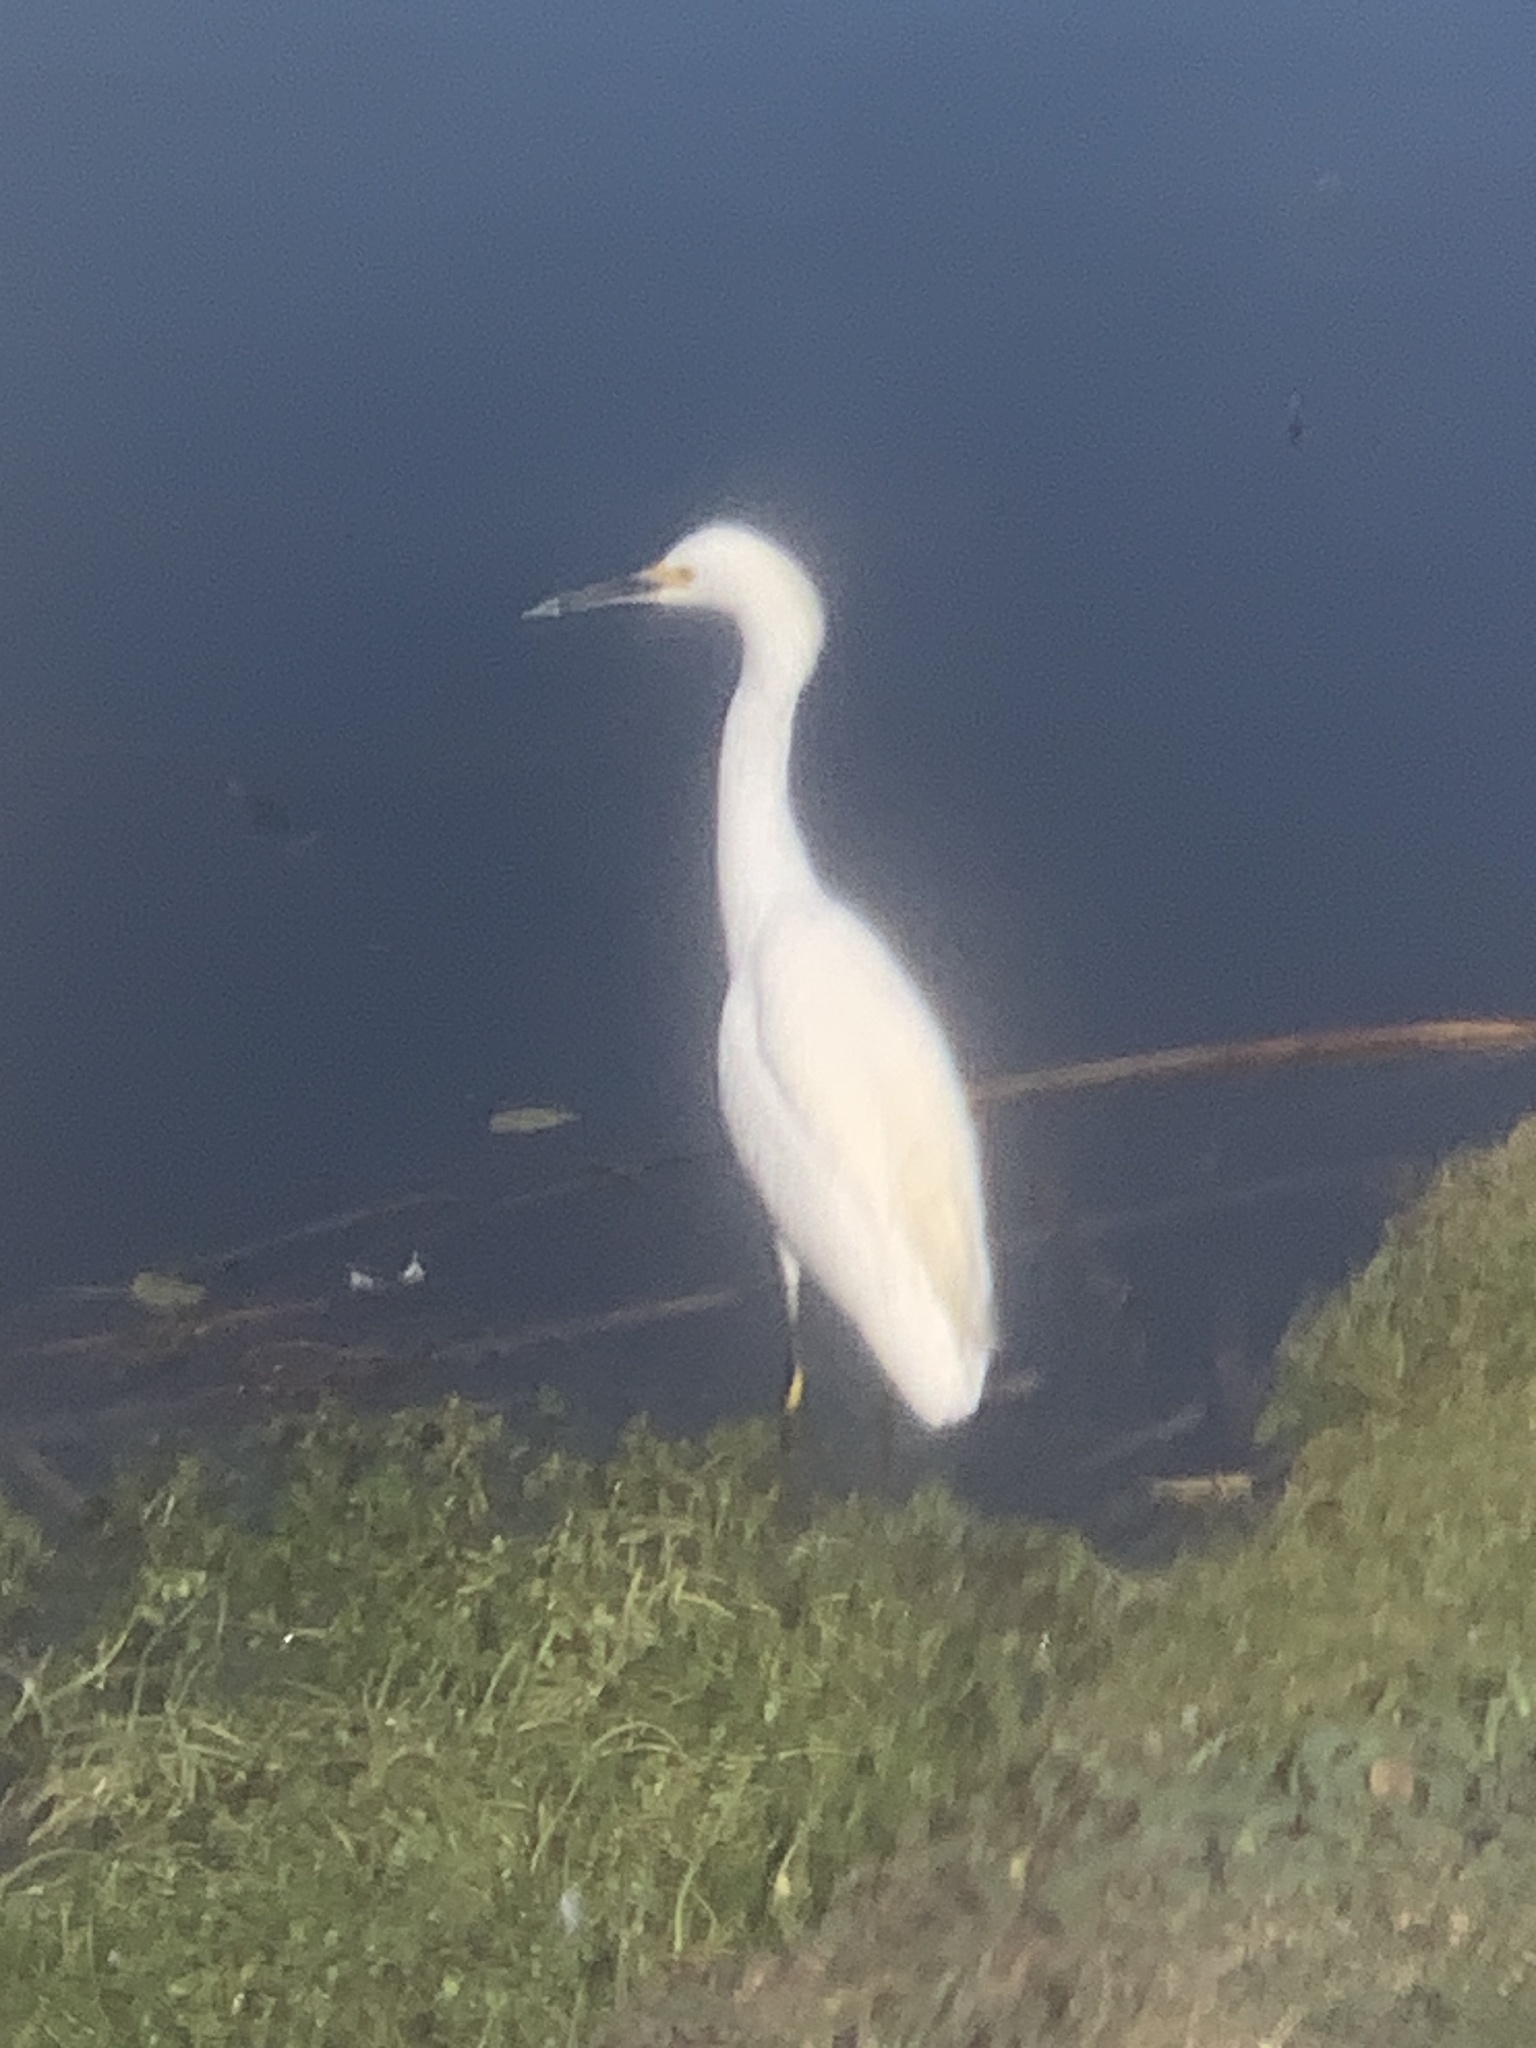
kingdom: Animalia
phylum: Chordata
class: Aves
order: Pelecaniformes
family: Ardeidae
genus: Egretta
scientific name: Egretta thula
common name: Snowy egret
